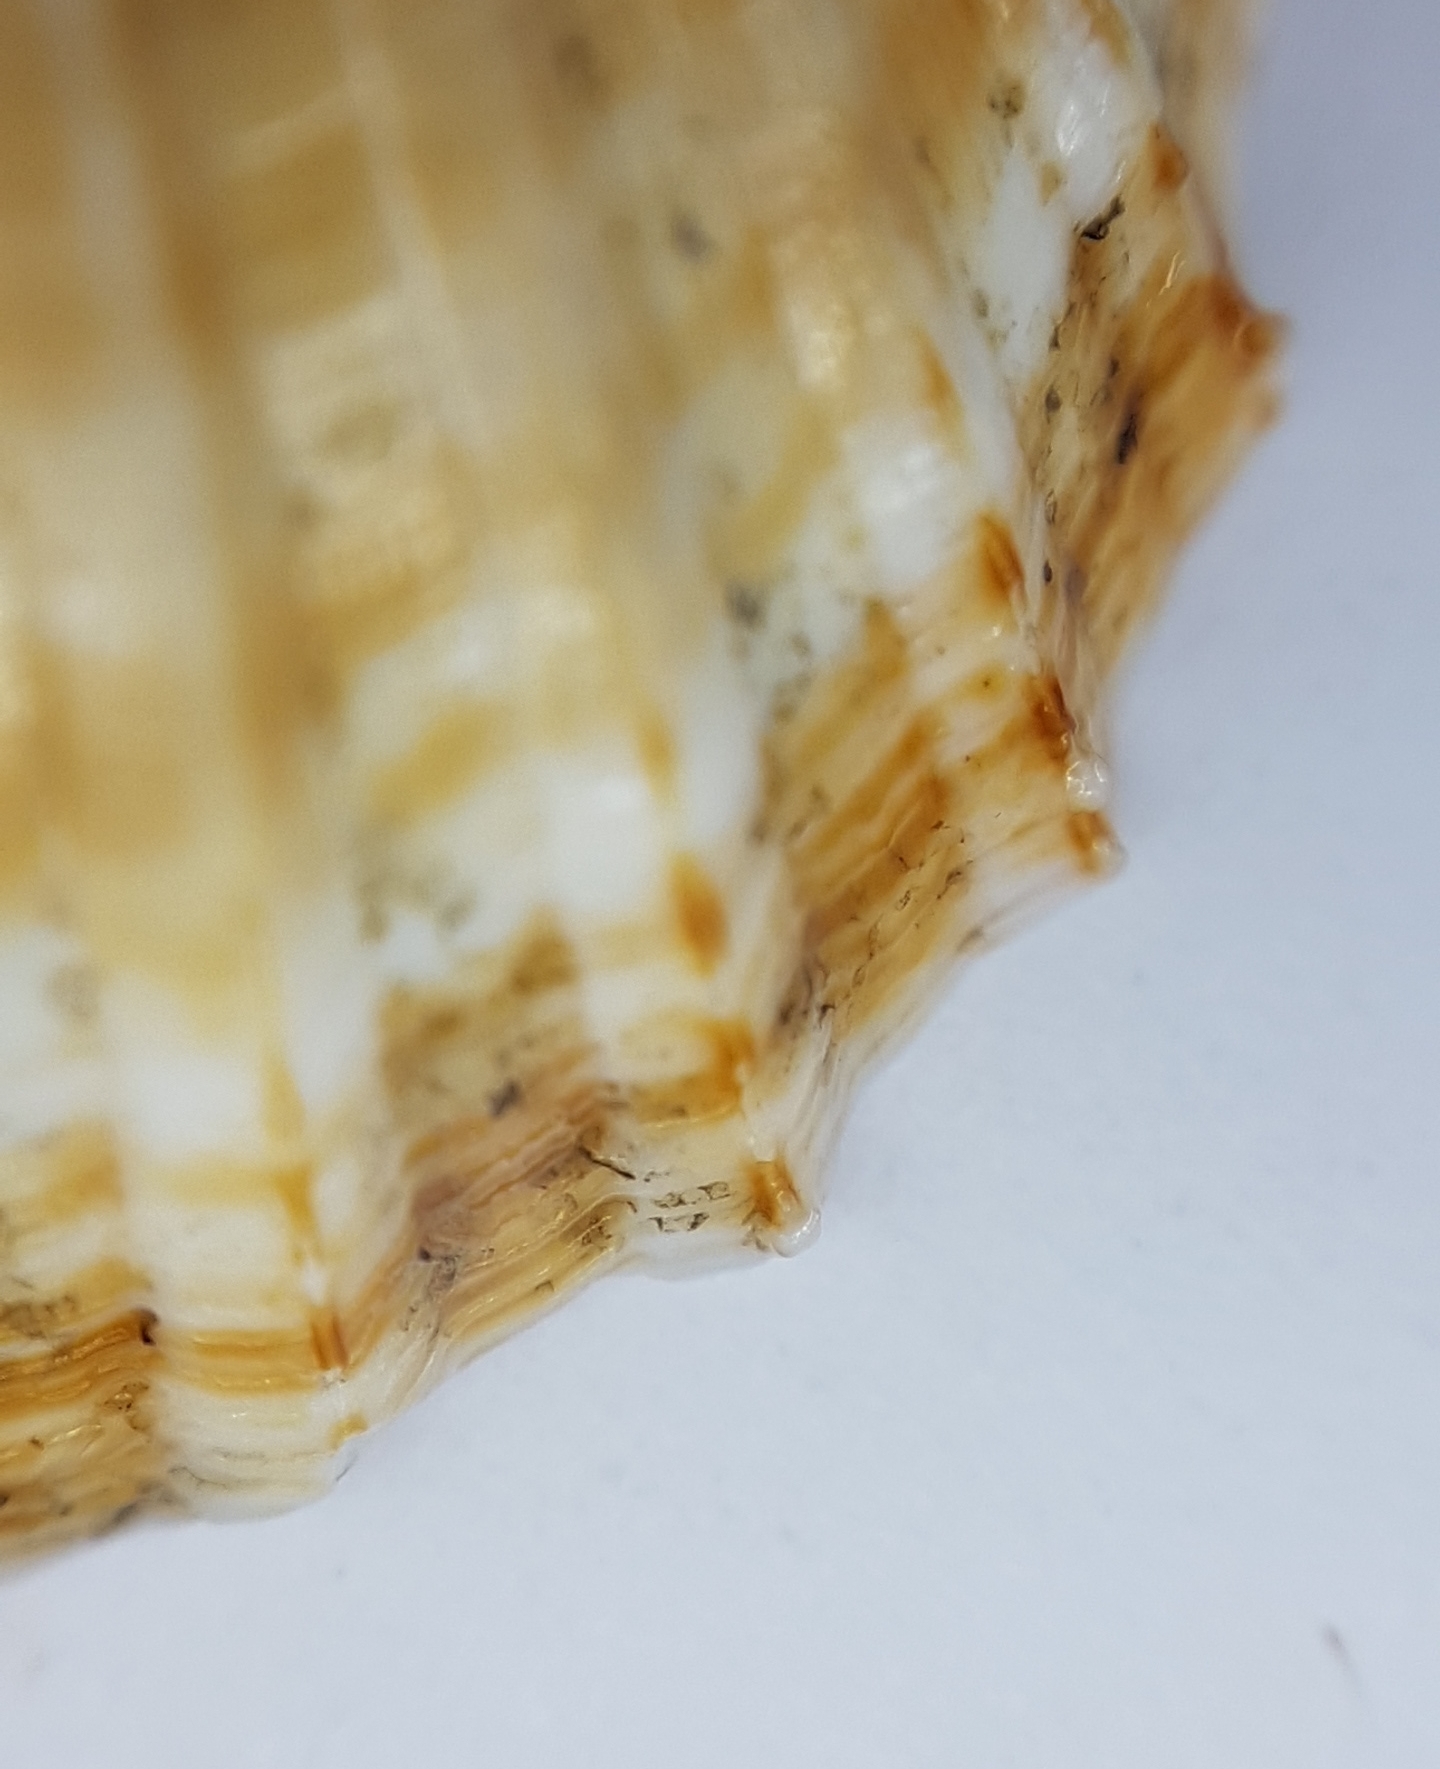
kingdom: Animalia
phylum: Mollusca
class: Bivalvia
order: Cardiida
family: Cardiidae
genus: Acanthocardia
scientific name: Acanthocardia paucicostata
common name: Poorly ribbed cockle
